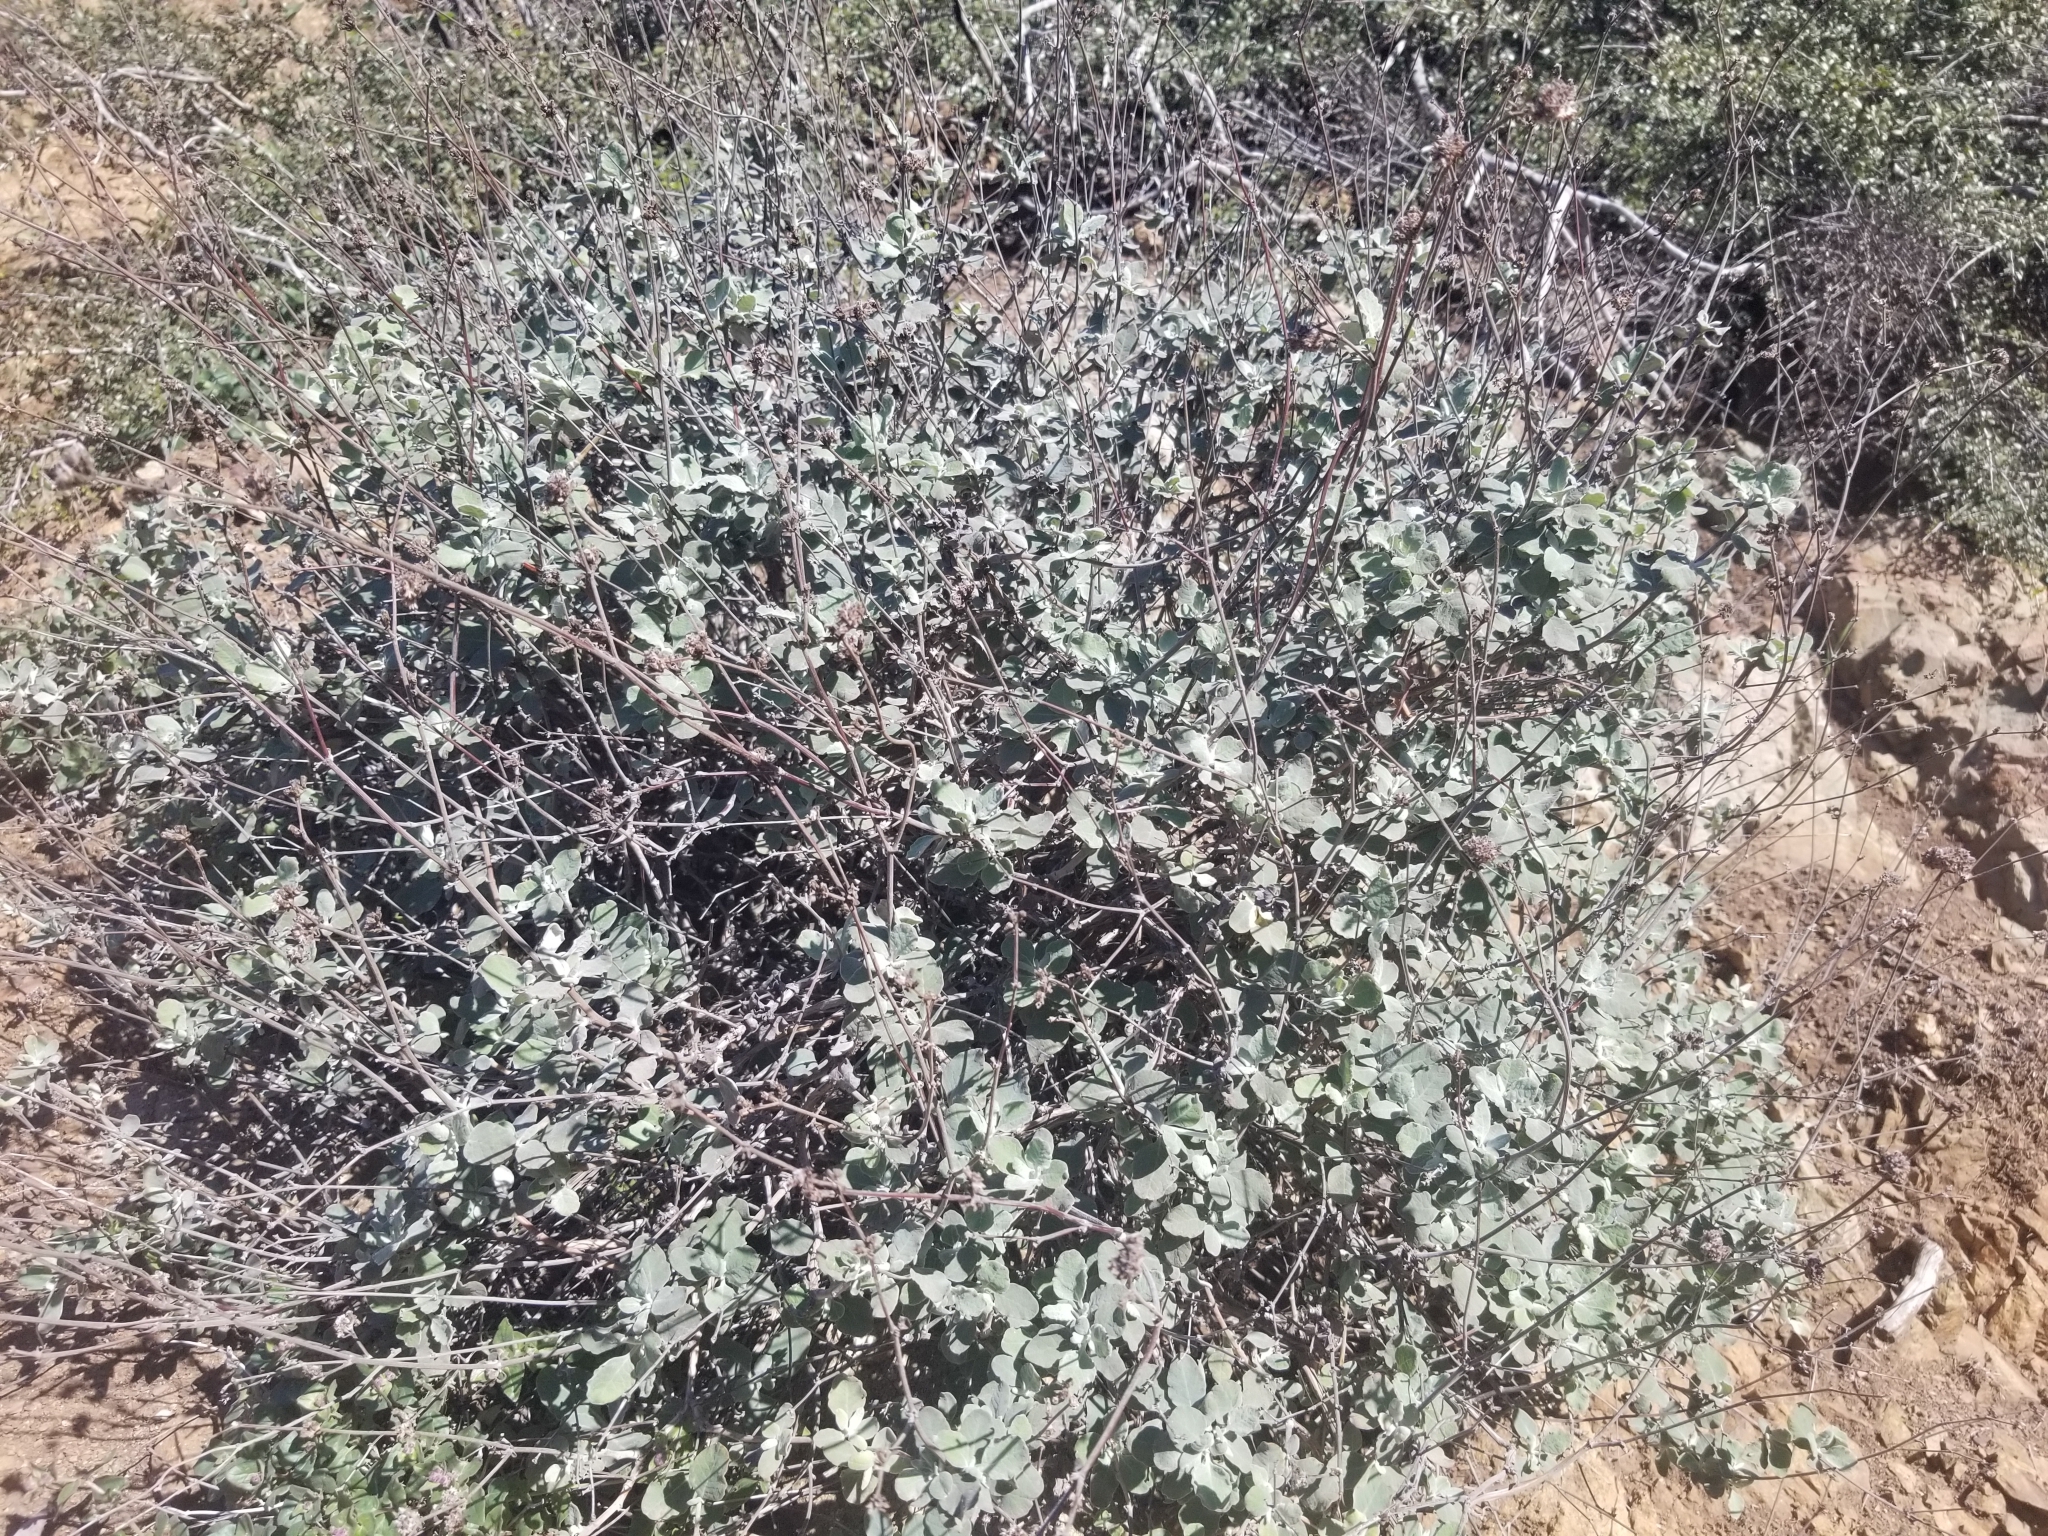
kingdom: Plantae
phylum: Tracheophyta
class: Magnoliopsida
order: Caryophyllales
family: Polygonaceae
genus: Eriogonum
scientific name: Eriogonum cinereum
